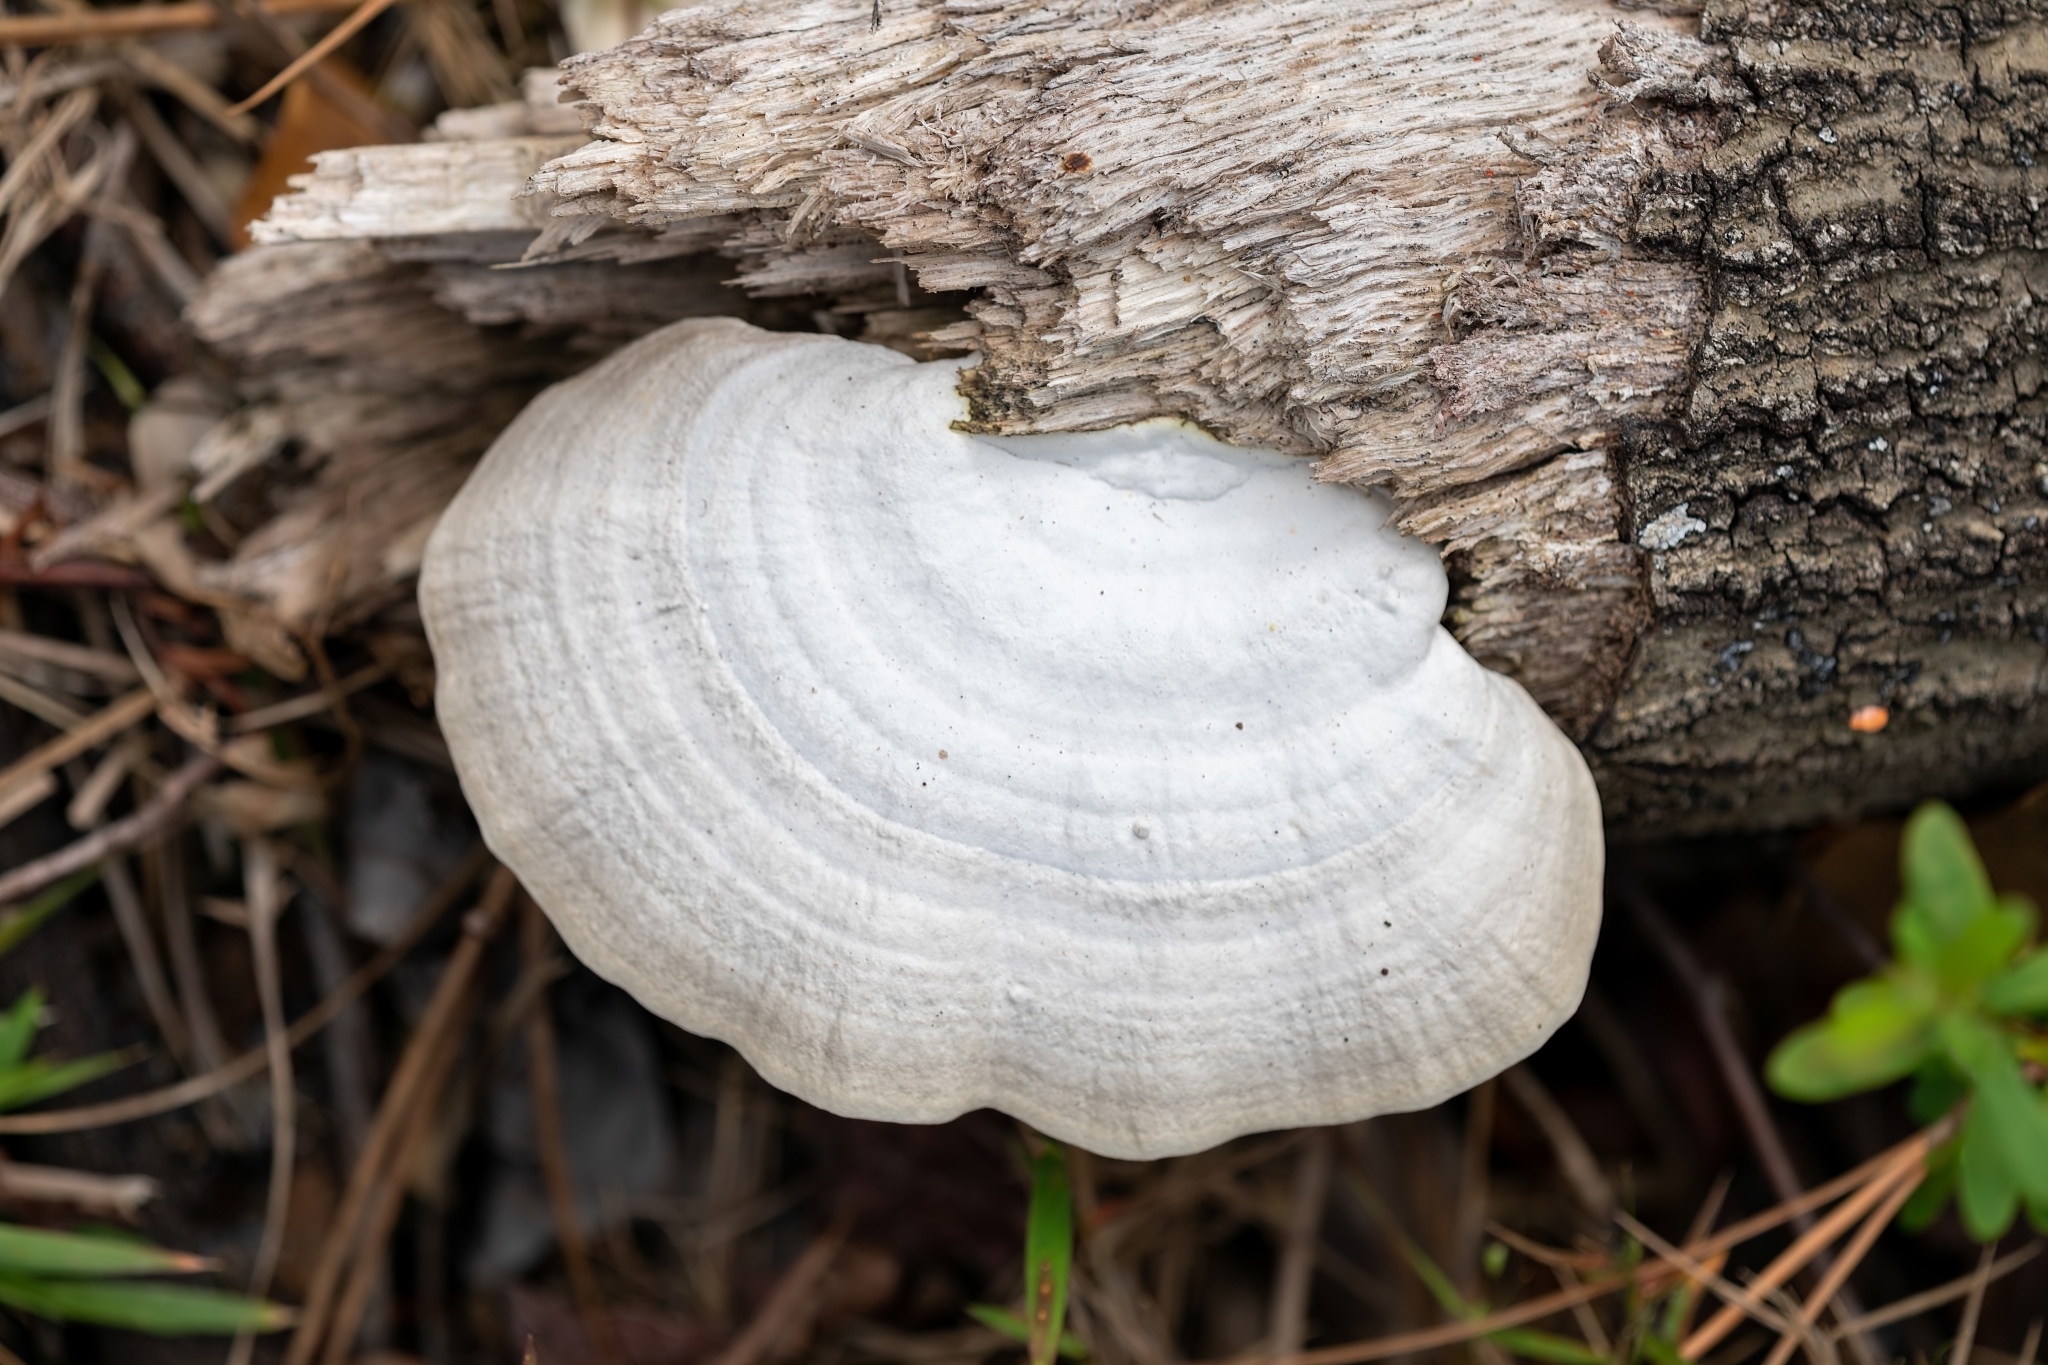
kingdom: Fungi
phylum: Basidiomycota
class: Agaricomycetes
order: Polyporales
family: Polyporaceae
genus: Trametes
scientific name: Trametes lactinea
